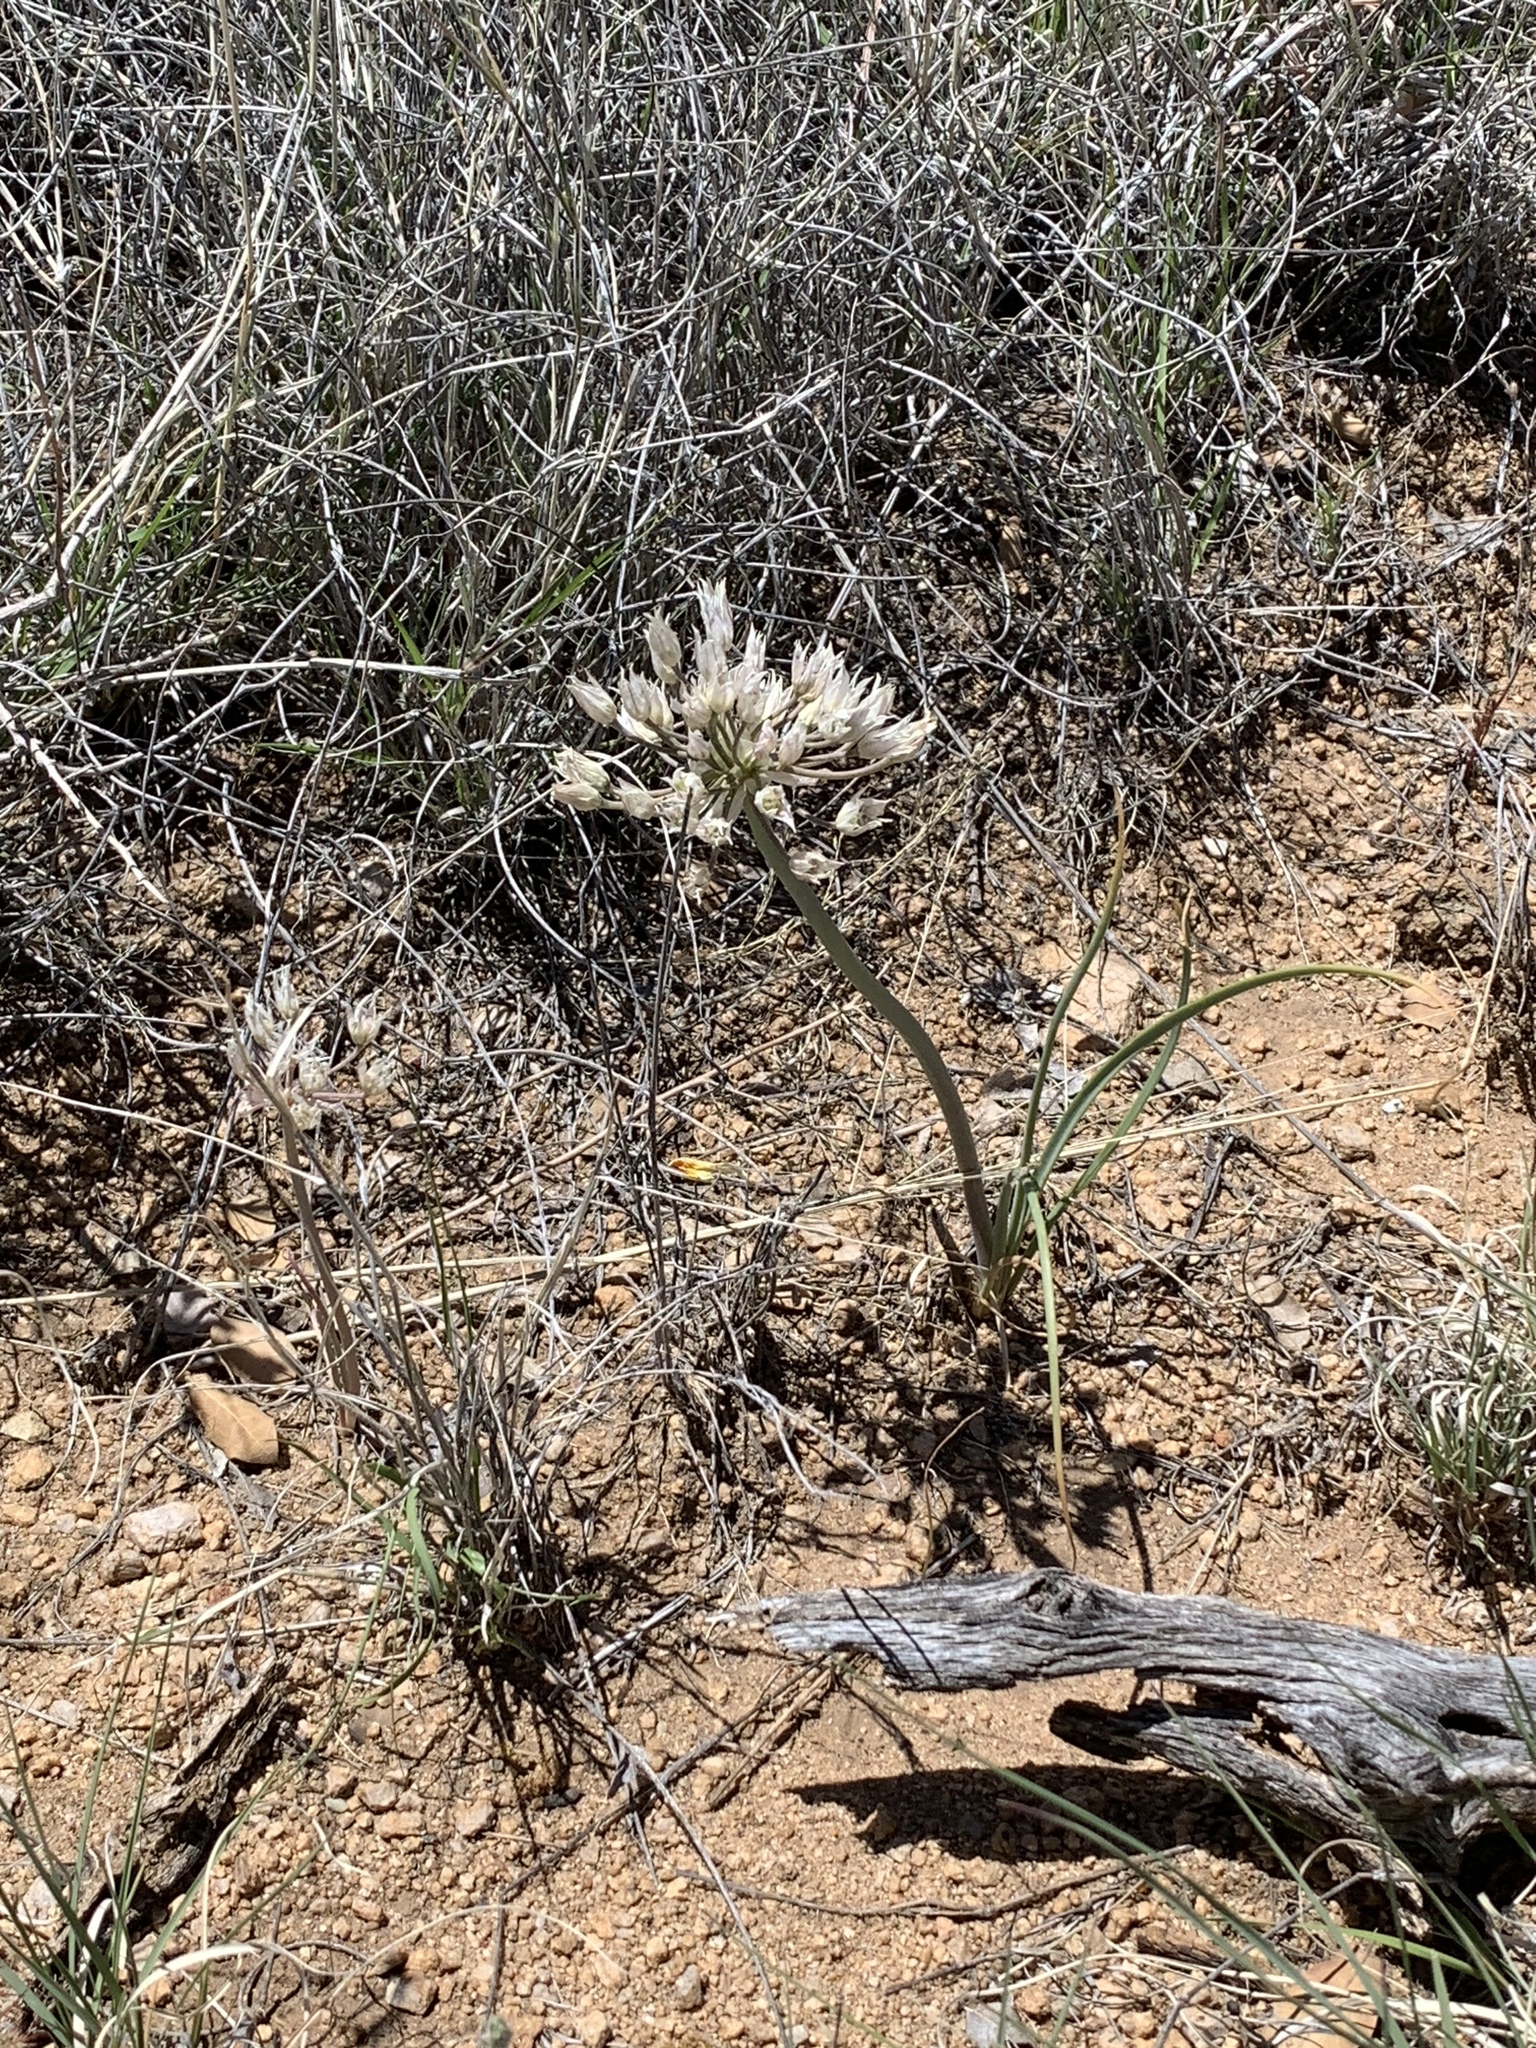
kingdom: Plantae
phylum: Tracheophyta
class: Liliopsida
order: Asparagales
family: Amaryllidaceae
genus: Allium
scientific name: Allium macropetalum
